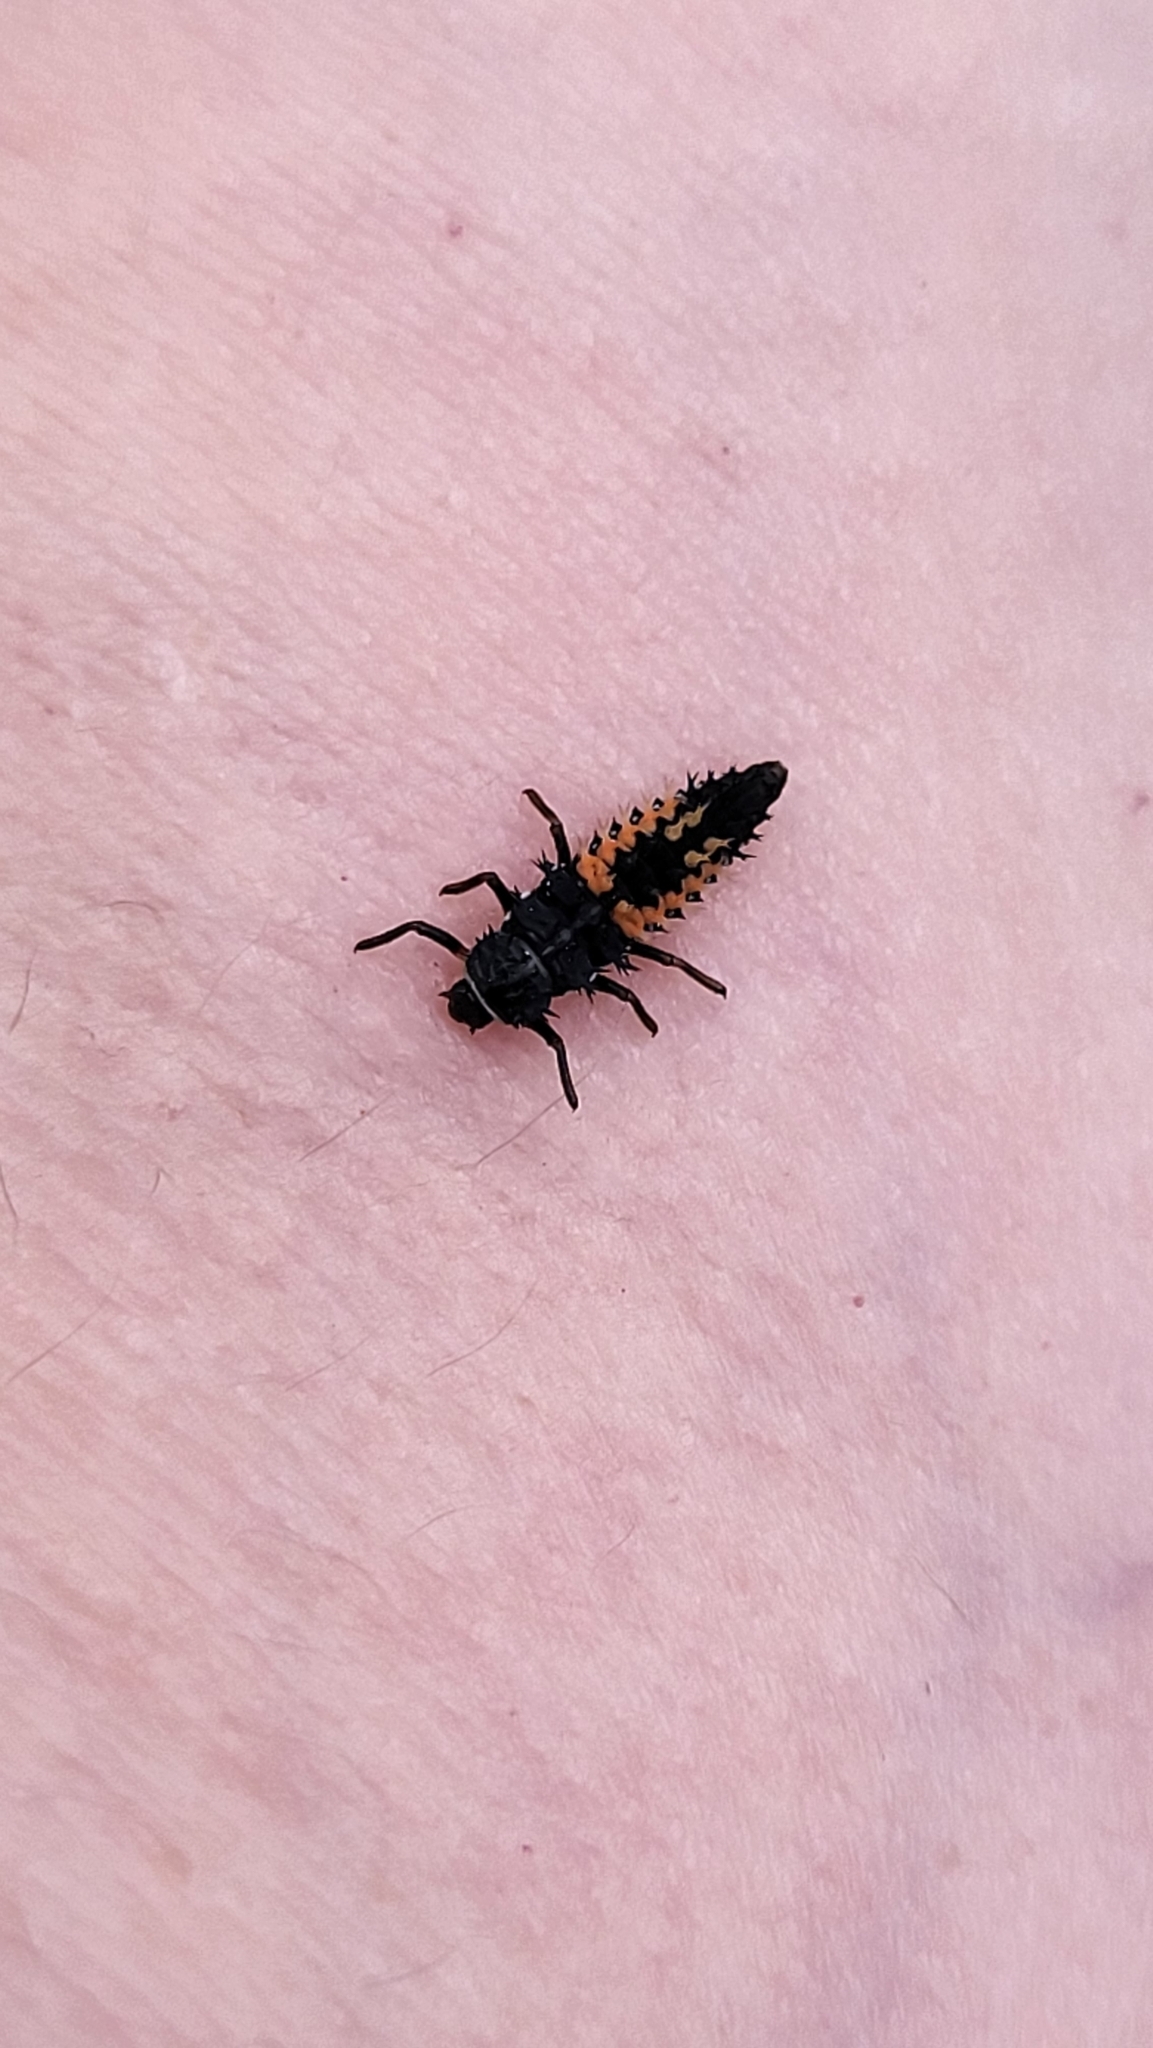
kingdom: Animalia
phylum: Arthropoda
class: Insecta
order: Coleoptera
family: Coccinellidae
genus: Harmonia
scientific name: Harmonia axyridis
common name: Harlequin ladybird
